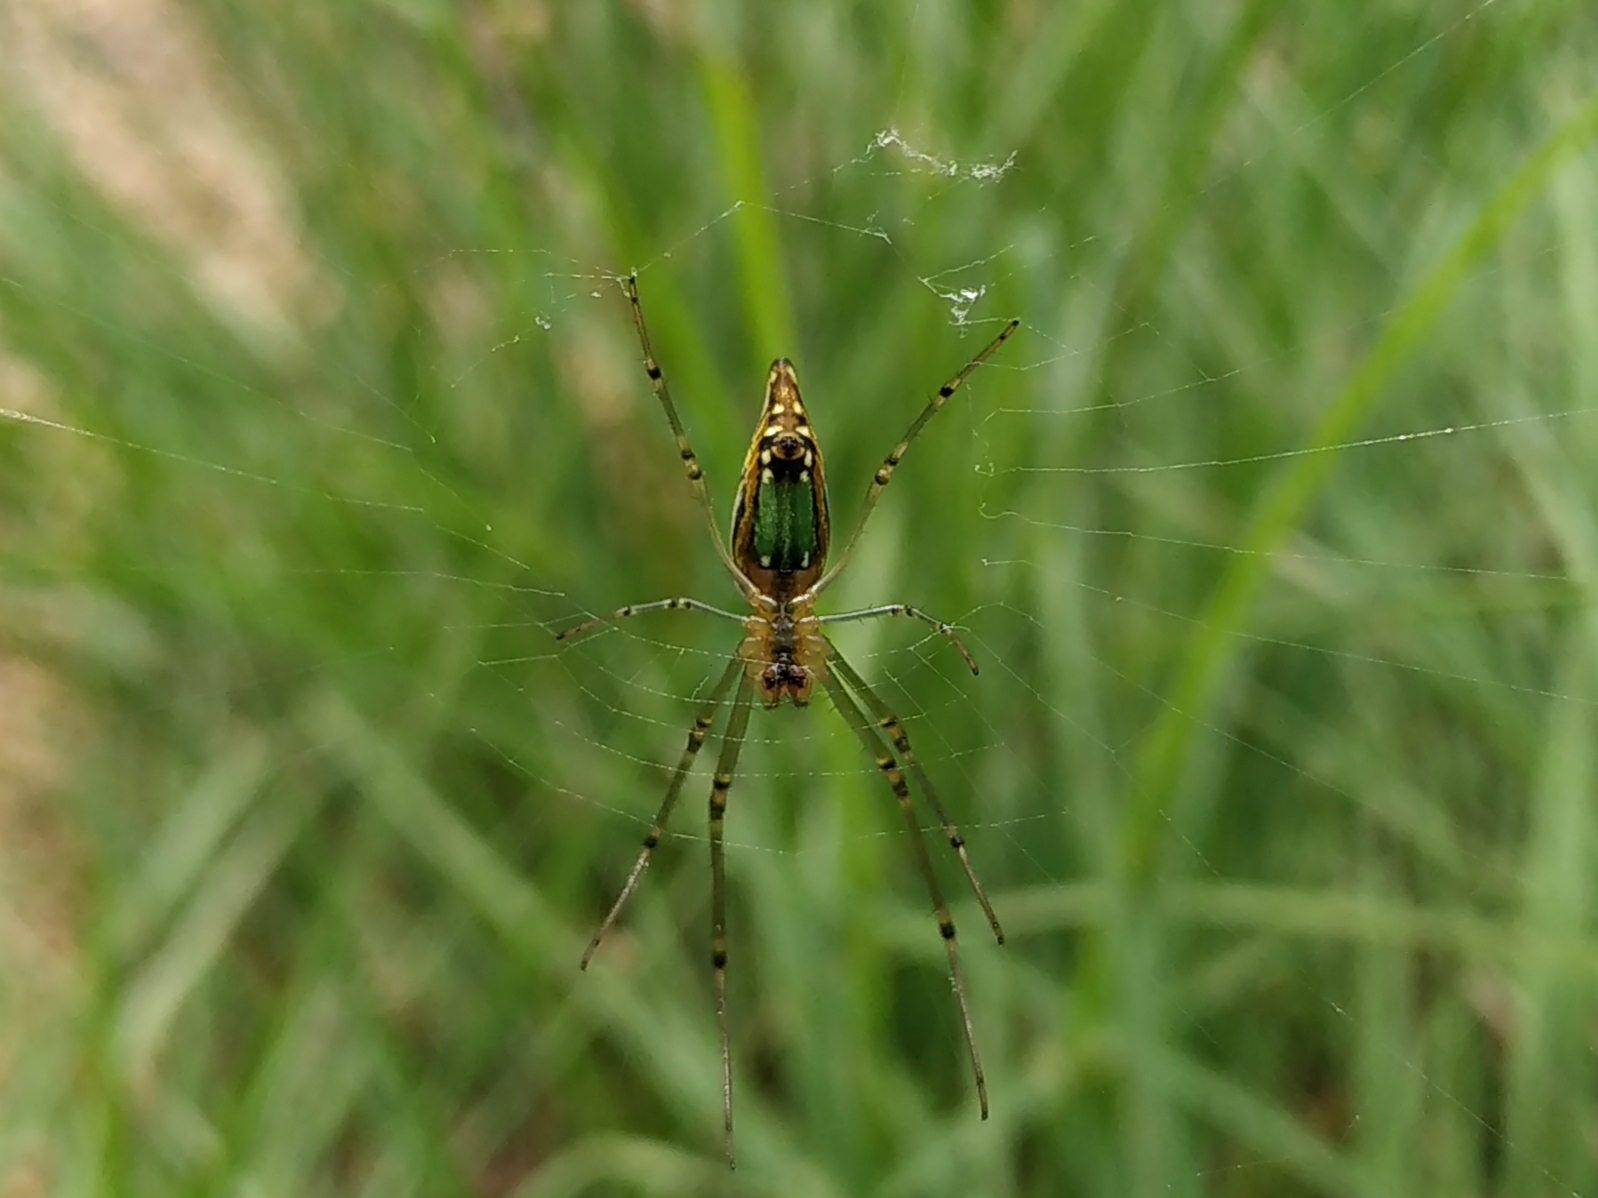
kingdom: Animalia
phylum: Arthropoda
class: Arachnida
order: Araneae
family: Tetragnathidae
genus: Leucauge
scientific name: Leucauge decorata
